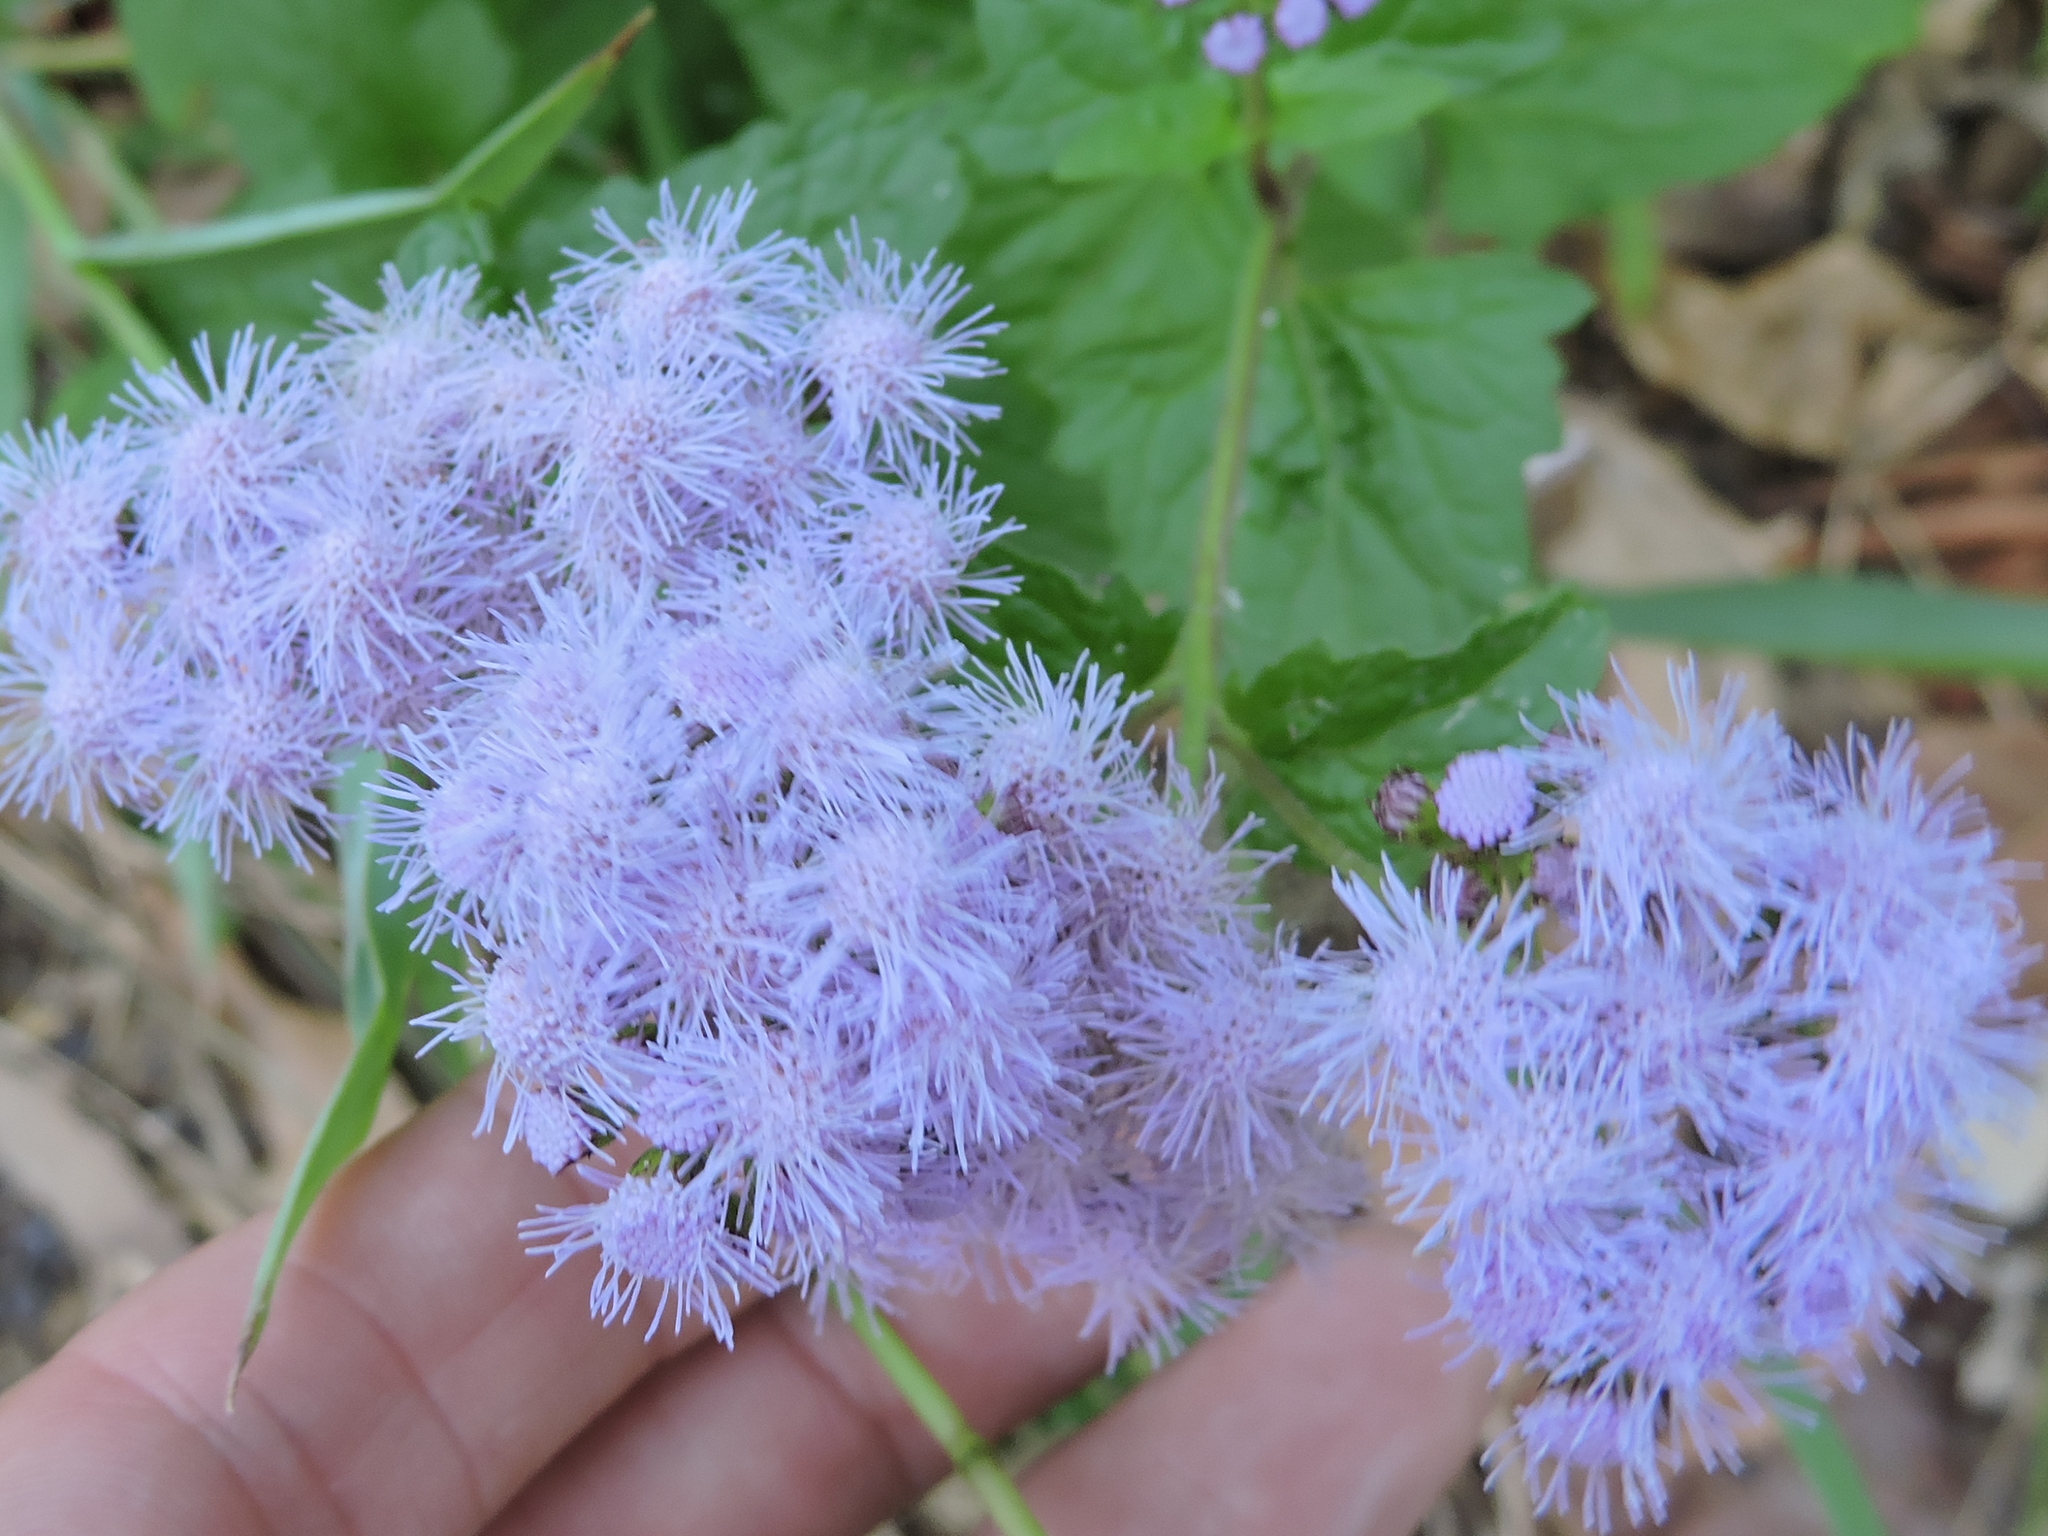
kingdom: Plantae
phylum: Tracheophyta
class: Magnoliopsida
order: Asterales
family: Asteraceae
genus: Conoclinium
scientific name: Conoclinium coelestinum
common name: Blue mistflower
